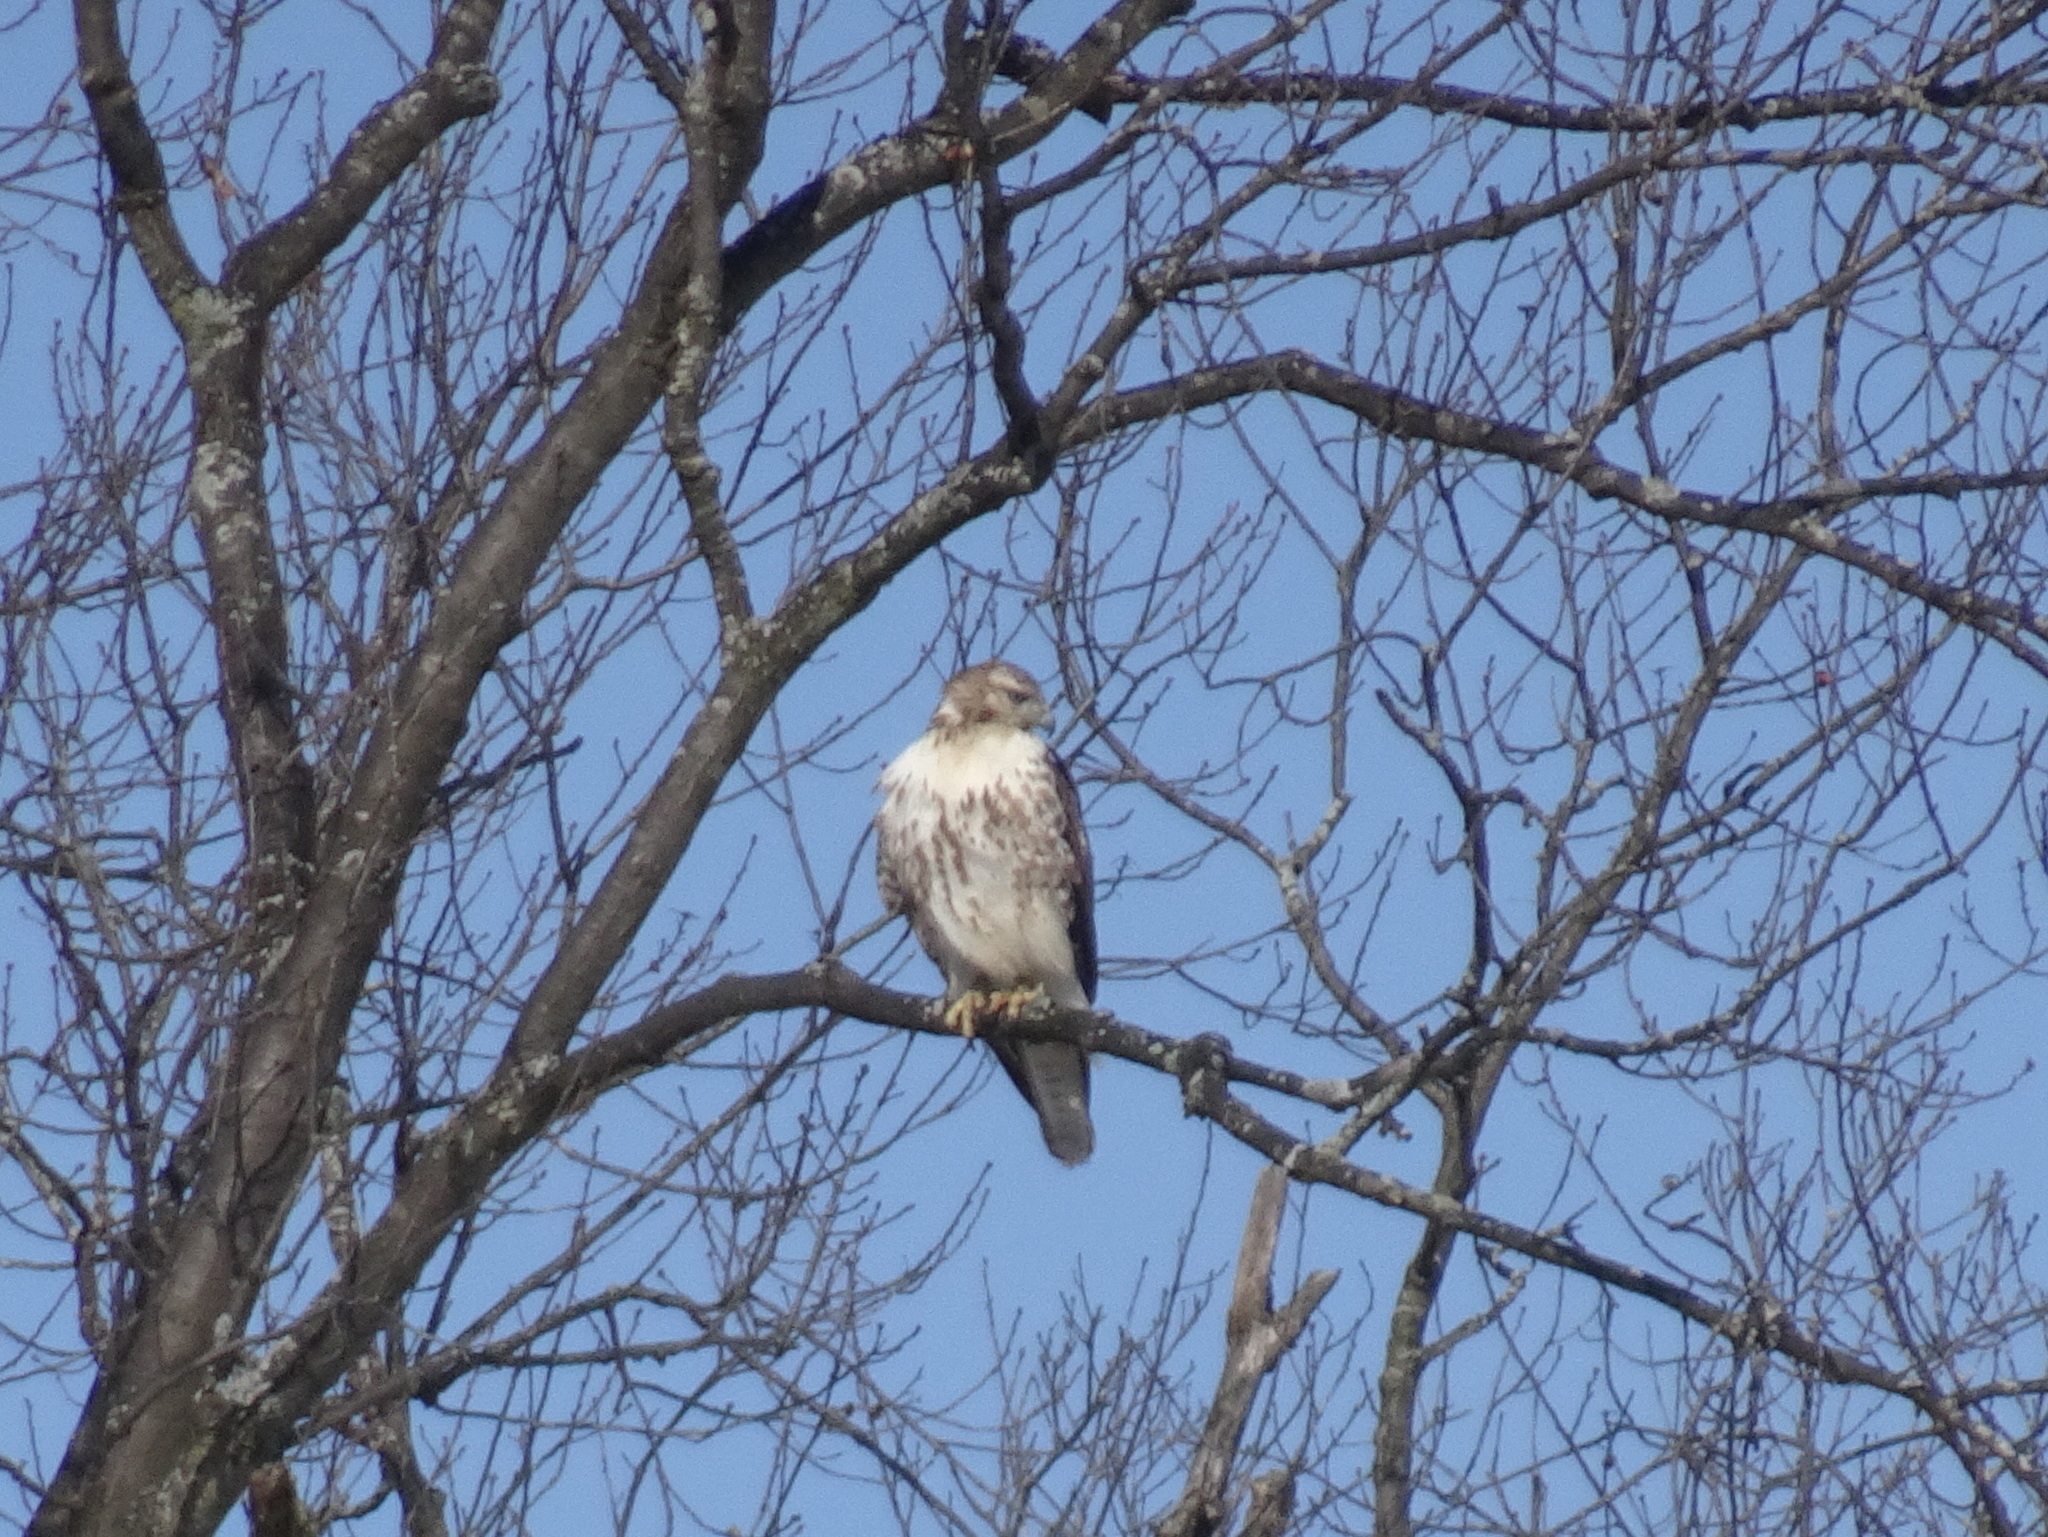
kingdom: Animalia
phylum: Chordata
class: Aves
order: Accipitriformes
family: Accipitridae
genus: Buteo
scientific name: Buteo jamaicensis
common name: Red-tailed hawk
